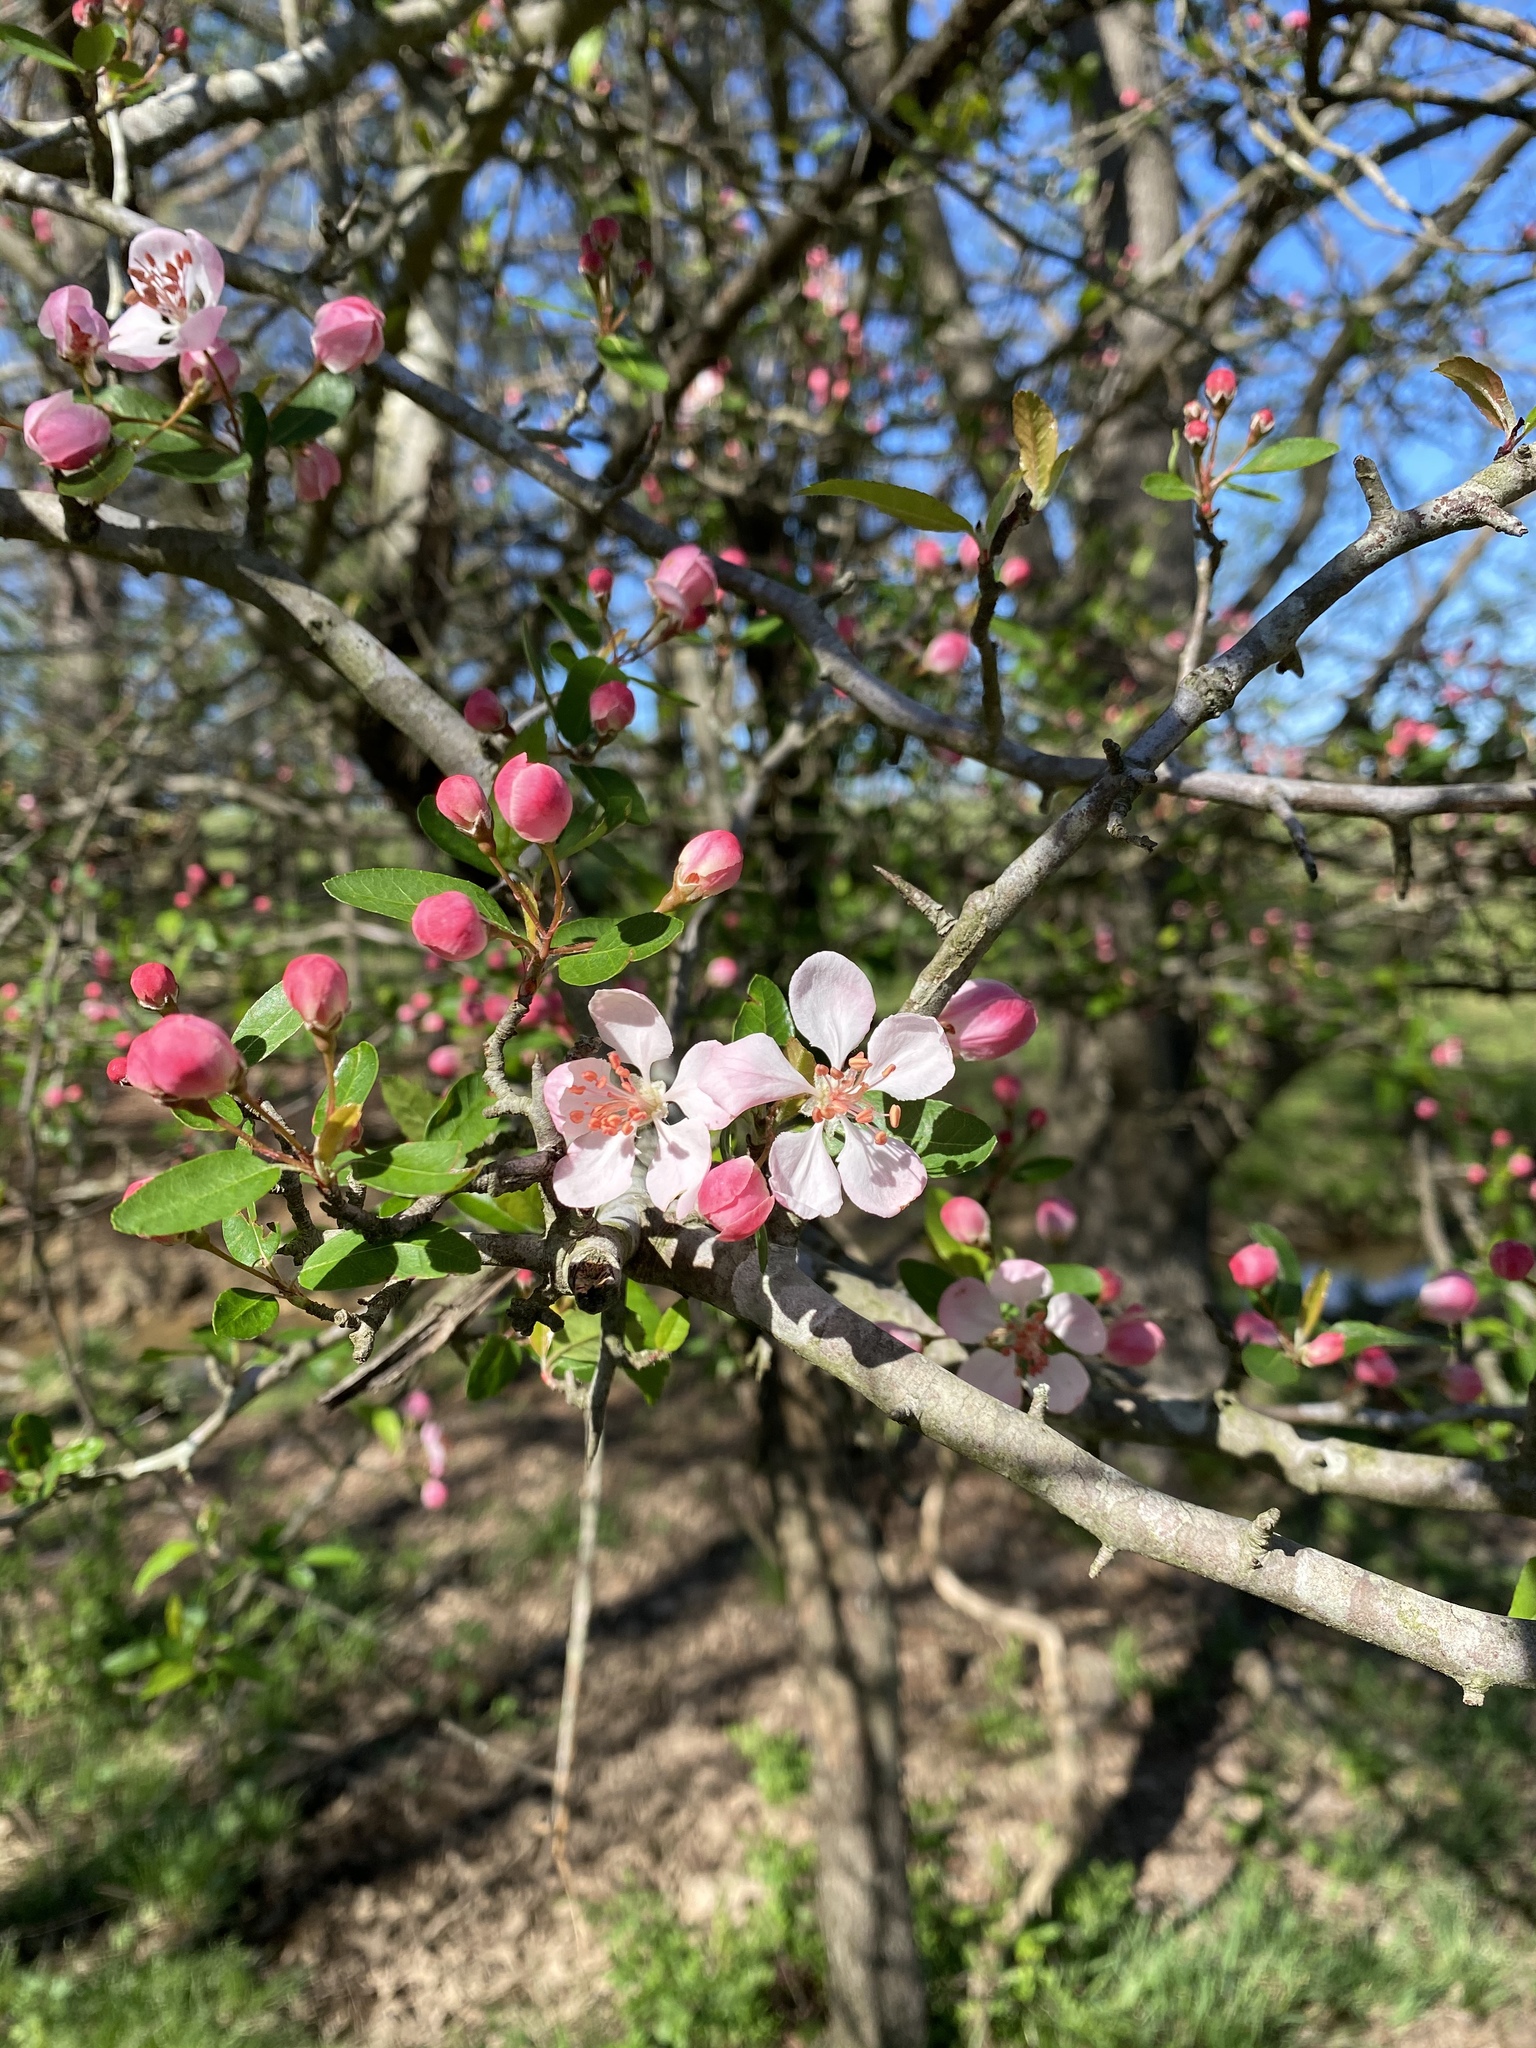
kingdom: Plantae
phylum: Tracheophyta
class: Magnoliopsida
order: Rosales
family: Rosaceae
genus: Malus
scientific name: Malus angustifolia
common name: Southern crab apple
